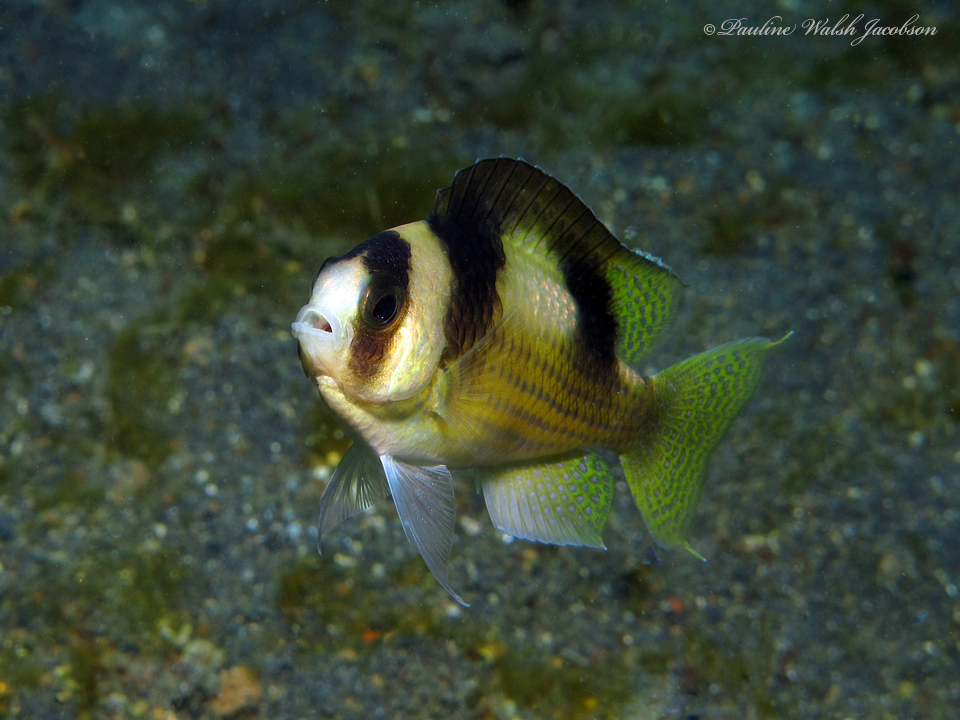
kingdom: Animalia
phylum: Chordata
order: Perciformes
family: Pomacentridae
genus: Amblypomacentrus
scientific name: Amblypomacentrus breviceps
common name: Black-banded demoiselle
